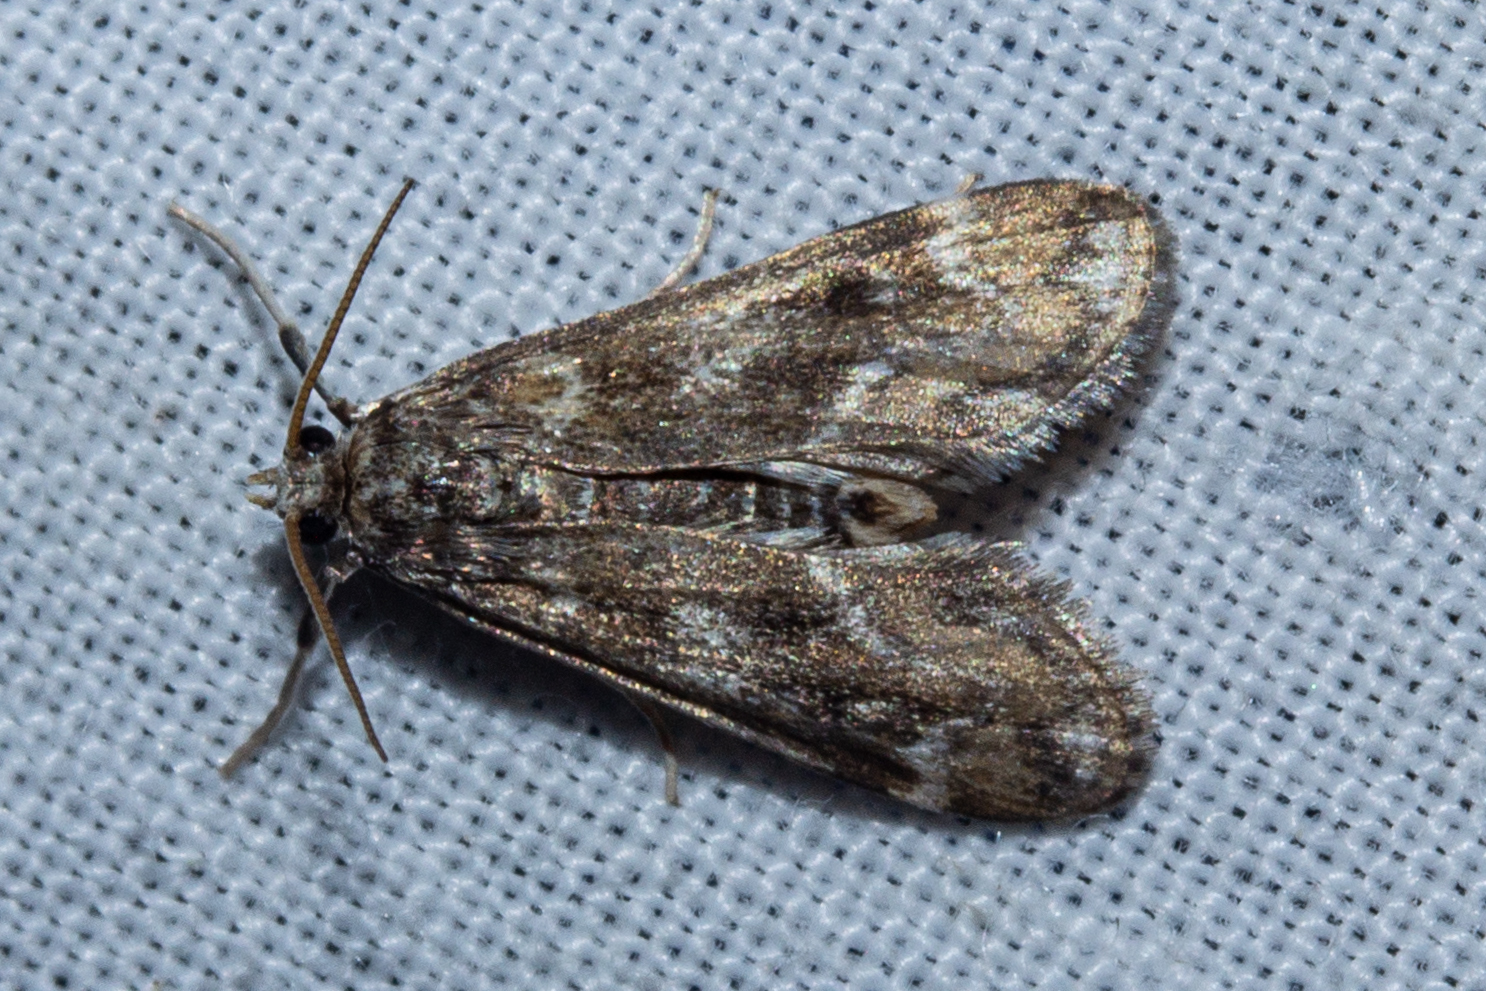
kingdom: Animalia
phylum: Arthropoda
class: Insecta
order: Lepidoptera
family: Crambidae
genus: Hygraula
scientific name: Hygraula nitens
